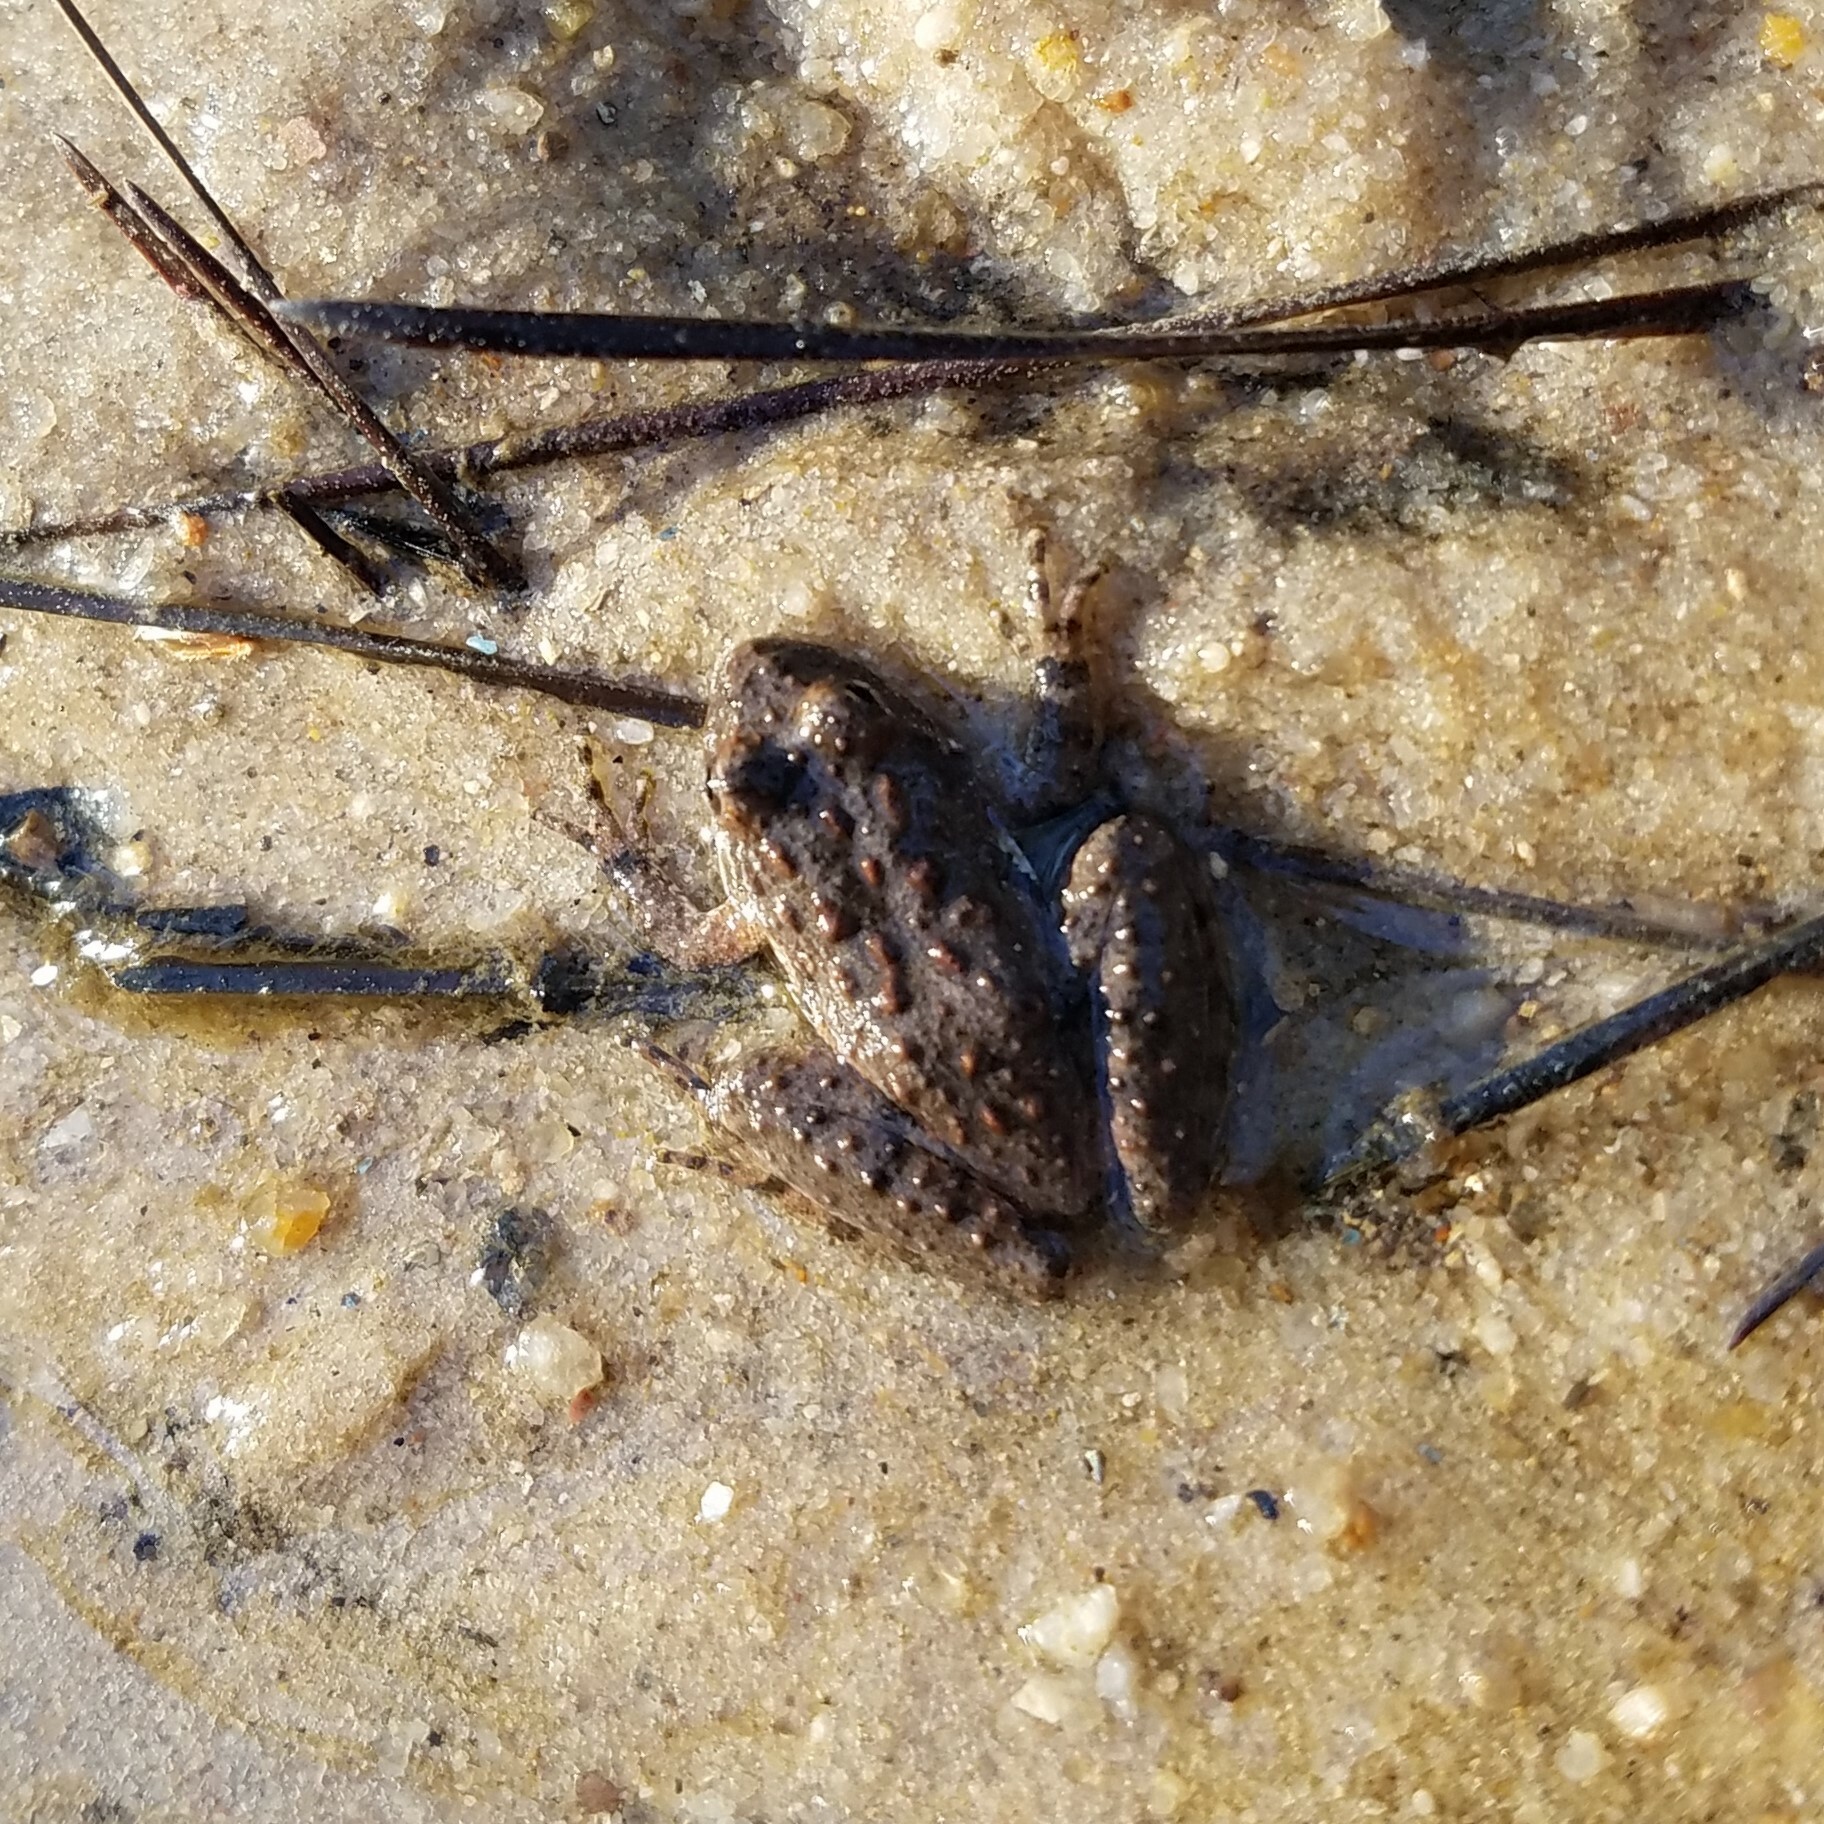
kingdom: Animalia
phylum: Chordata
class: Amphibia
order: Anura
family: Hylidae
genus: Acris
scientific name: Acris crepitans
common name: Northern cricket frog
